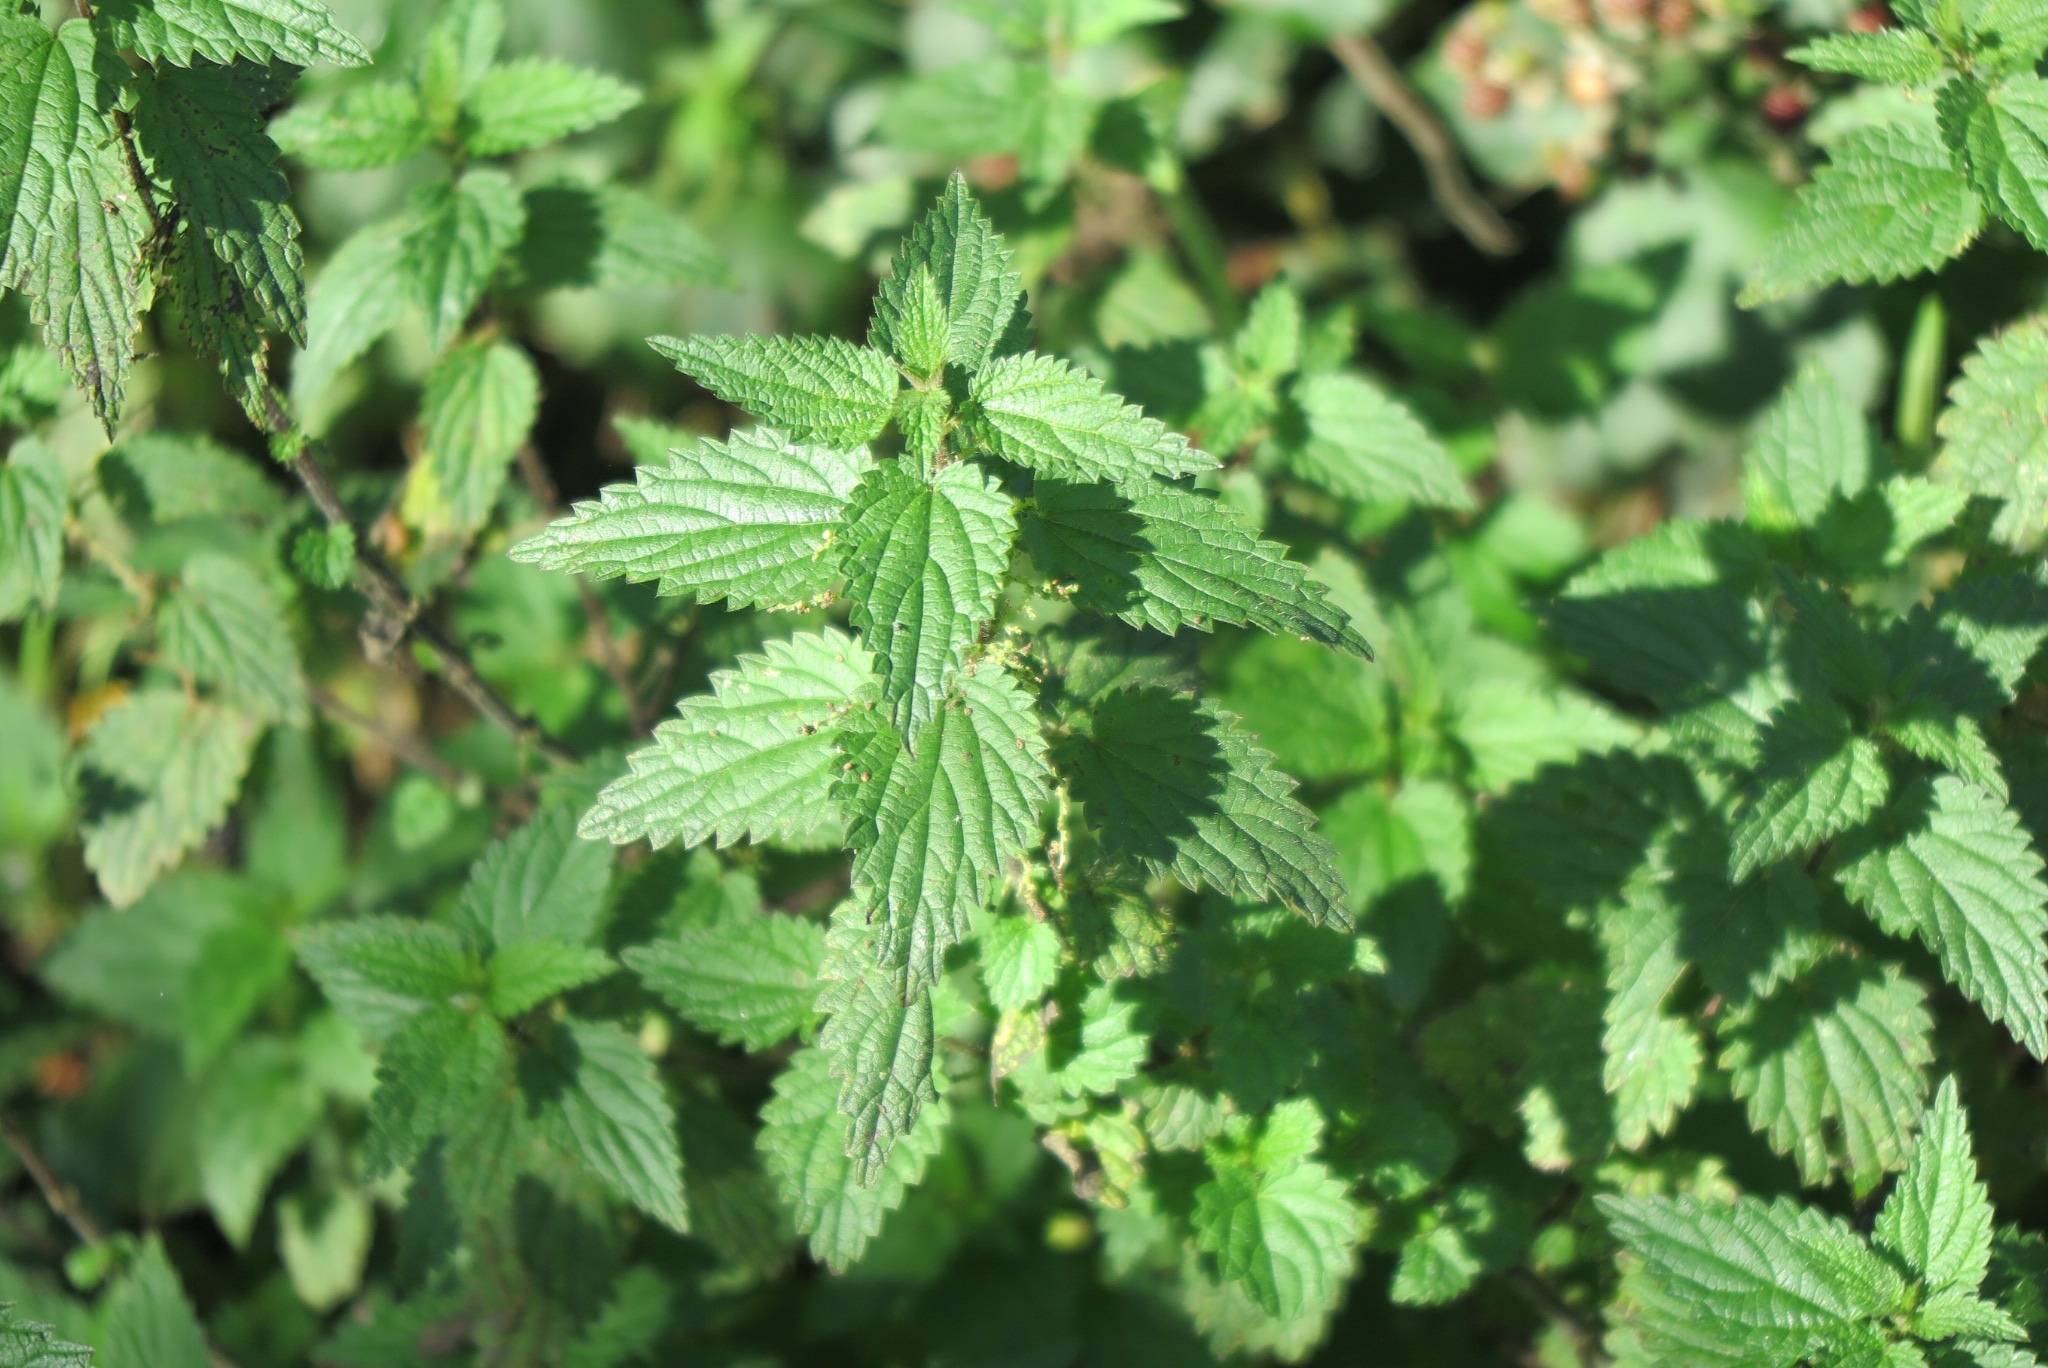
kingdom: Plantae
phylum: Tracheophyta
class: Magnoliopsida
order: Rosales
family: Urticaceae
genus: Urtica
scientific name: Urtica dioica
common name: Common nettle
